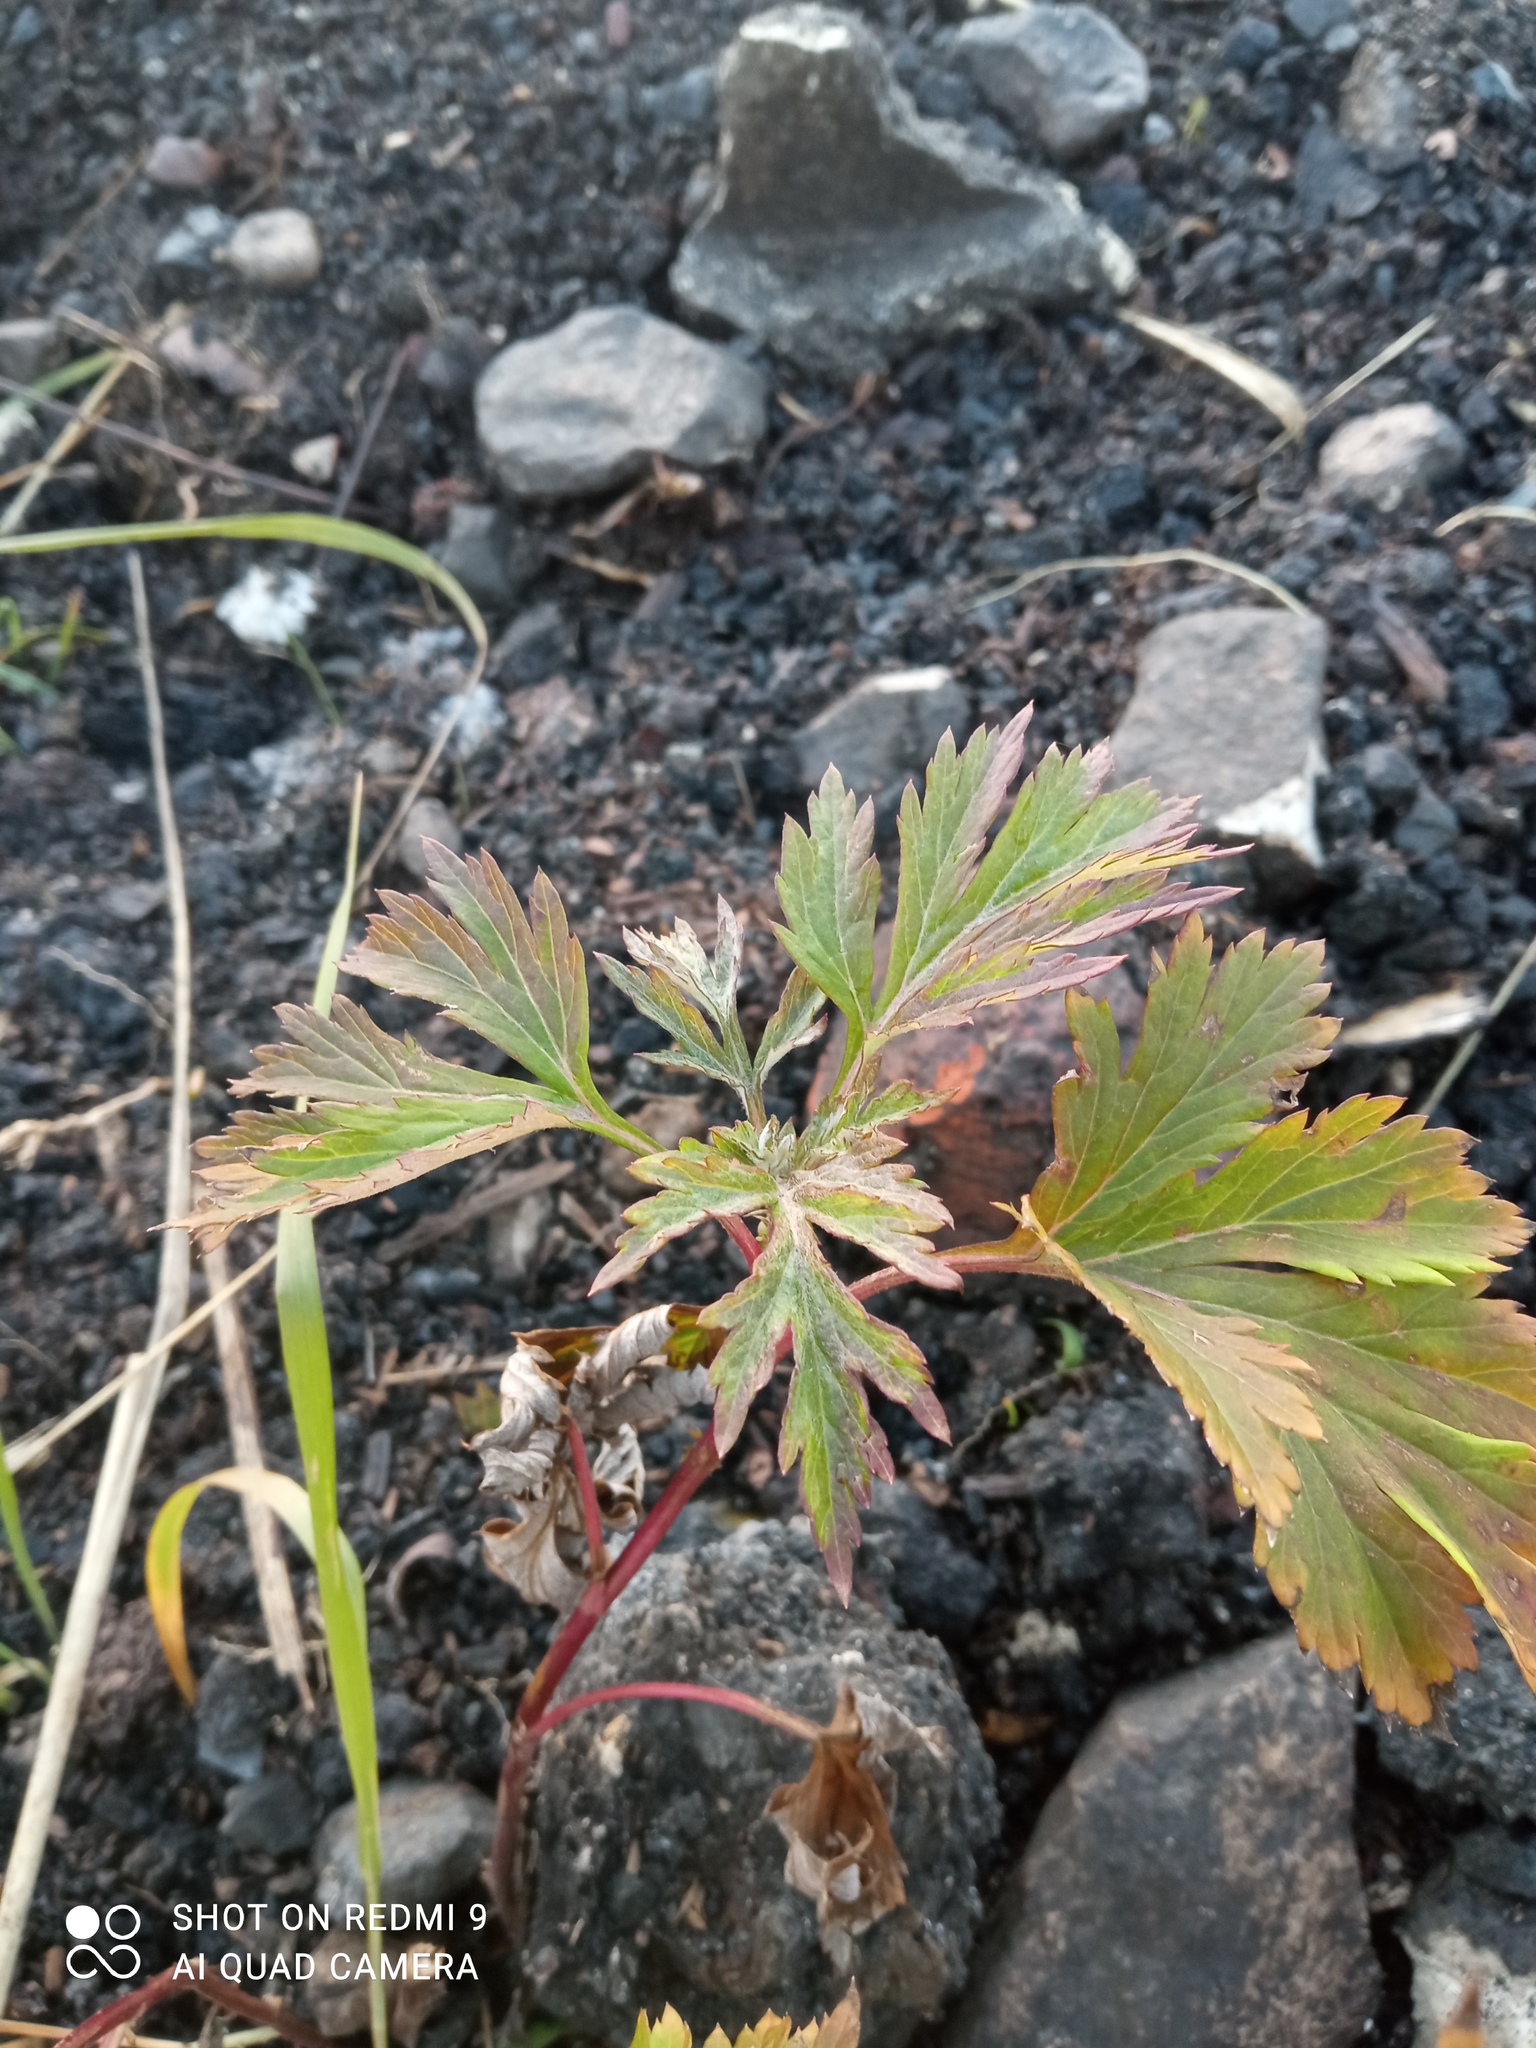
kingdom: Plantae
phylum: Tracheophyta
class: Magnoliopsida
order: Asterales
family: Asteraceae
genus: Artemisia
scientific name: Artemisia vulgaris
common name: Mugwort
